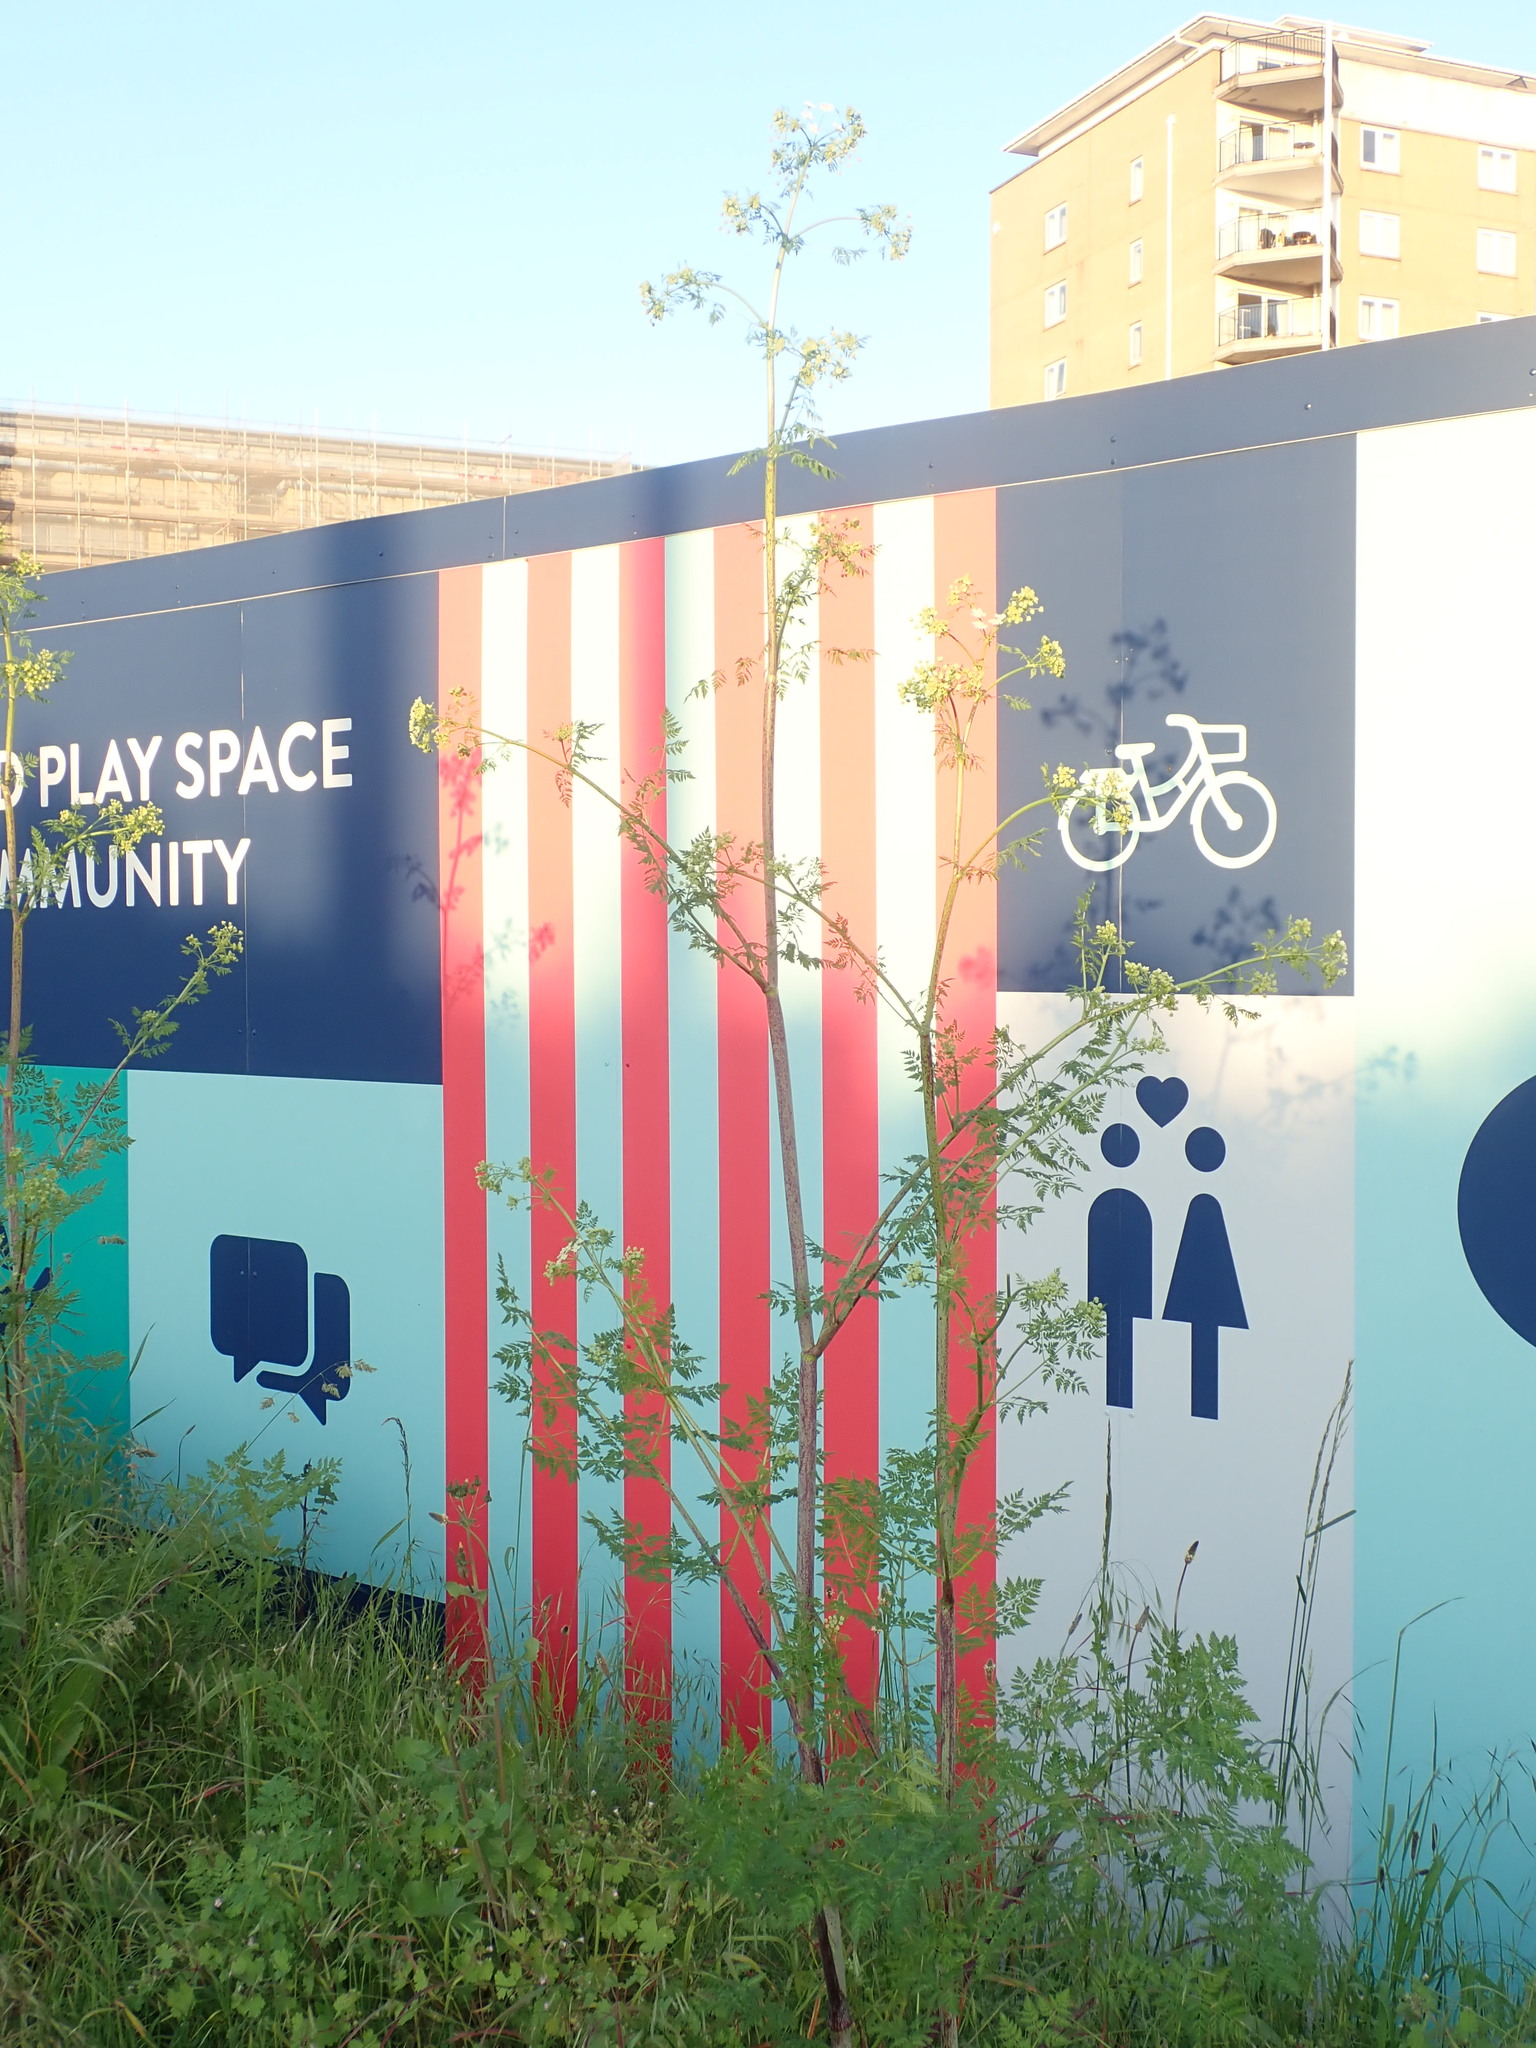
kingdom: Plantae
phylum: Tracheophyta
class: Magnoliopsida
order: Apiales
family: Apiaceae
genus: Conium
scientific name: Conium maculatum
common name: Hemlock
